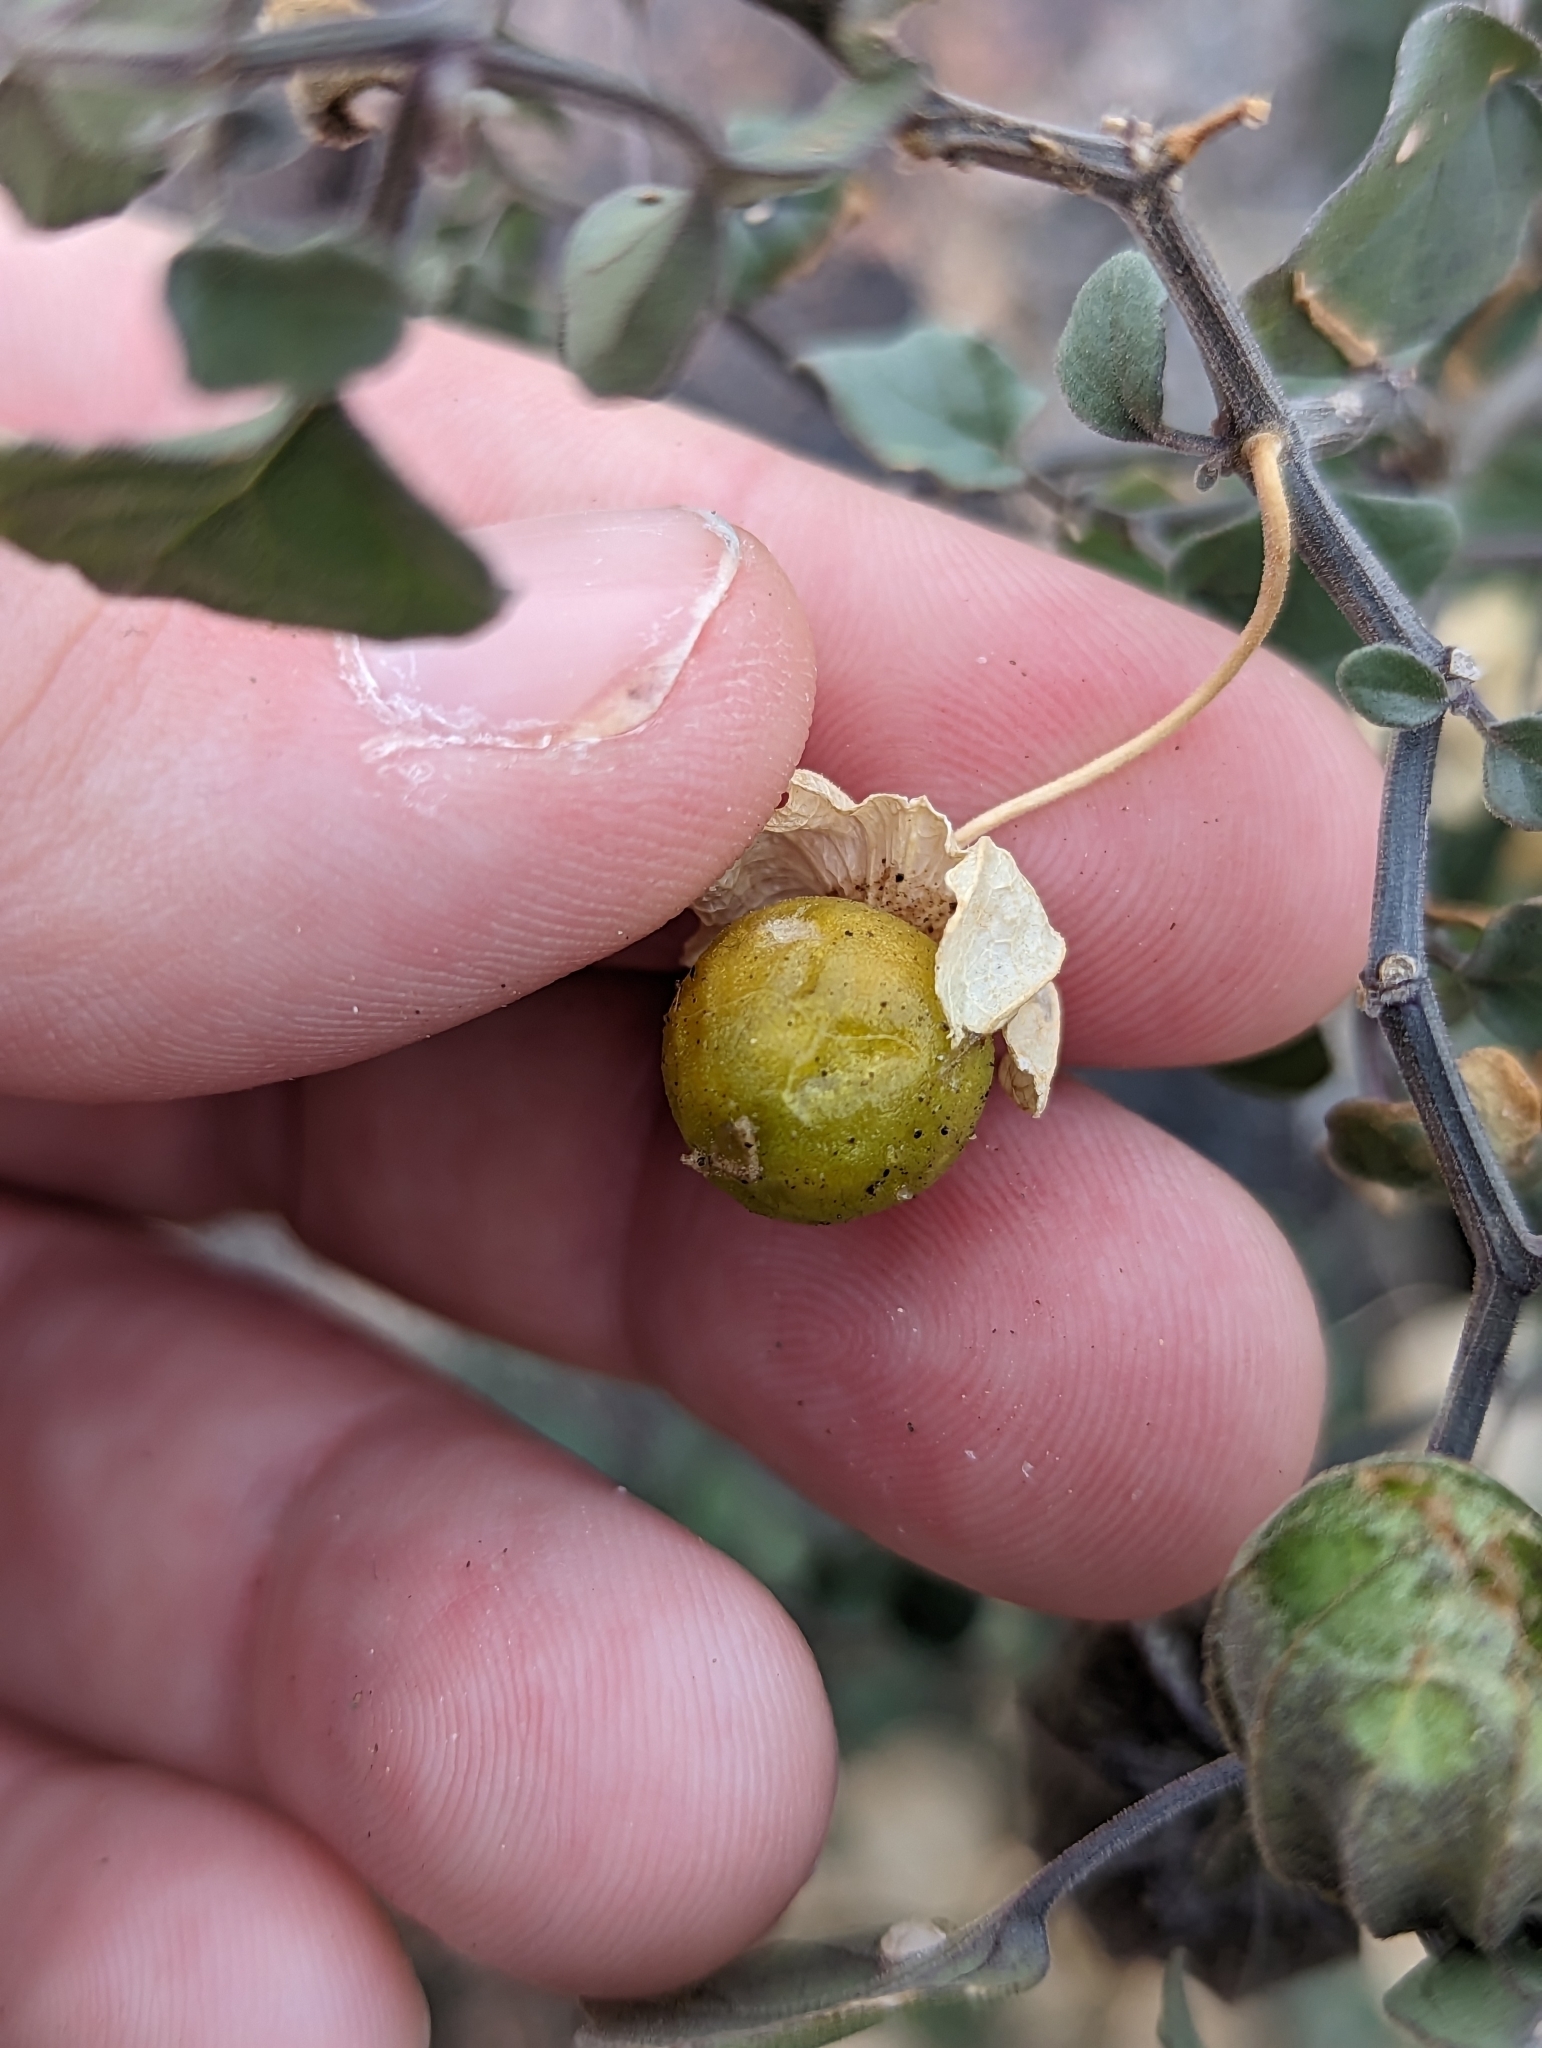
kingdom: Plantae
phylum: Tracheophyta
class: Magnoliopsida
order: Solanales
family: Solanaceae
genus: Physalis
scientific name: Physalis crassifolia
